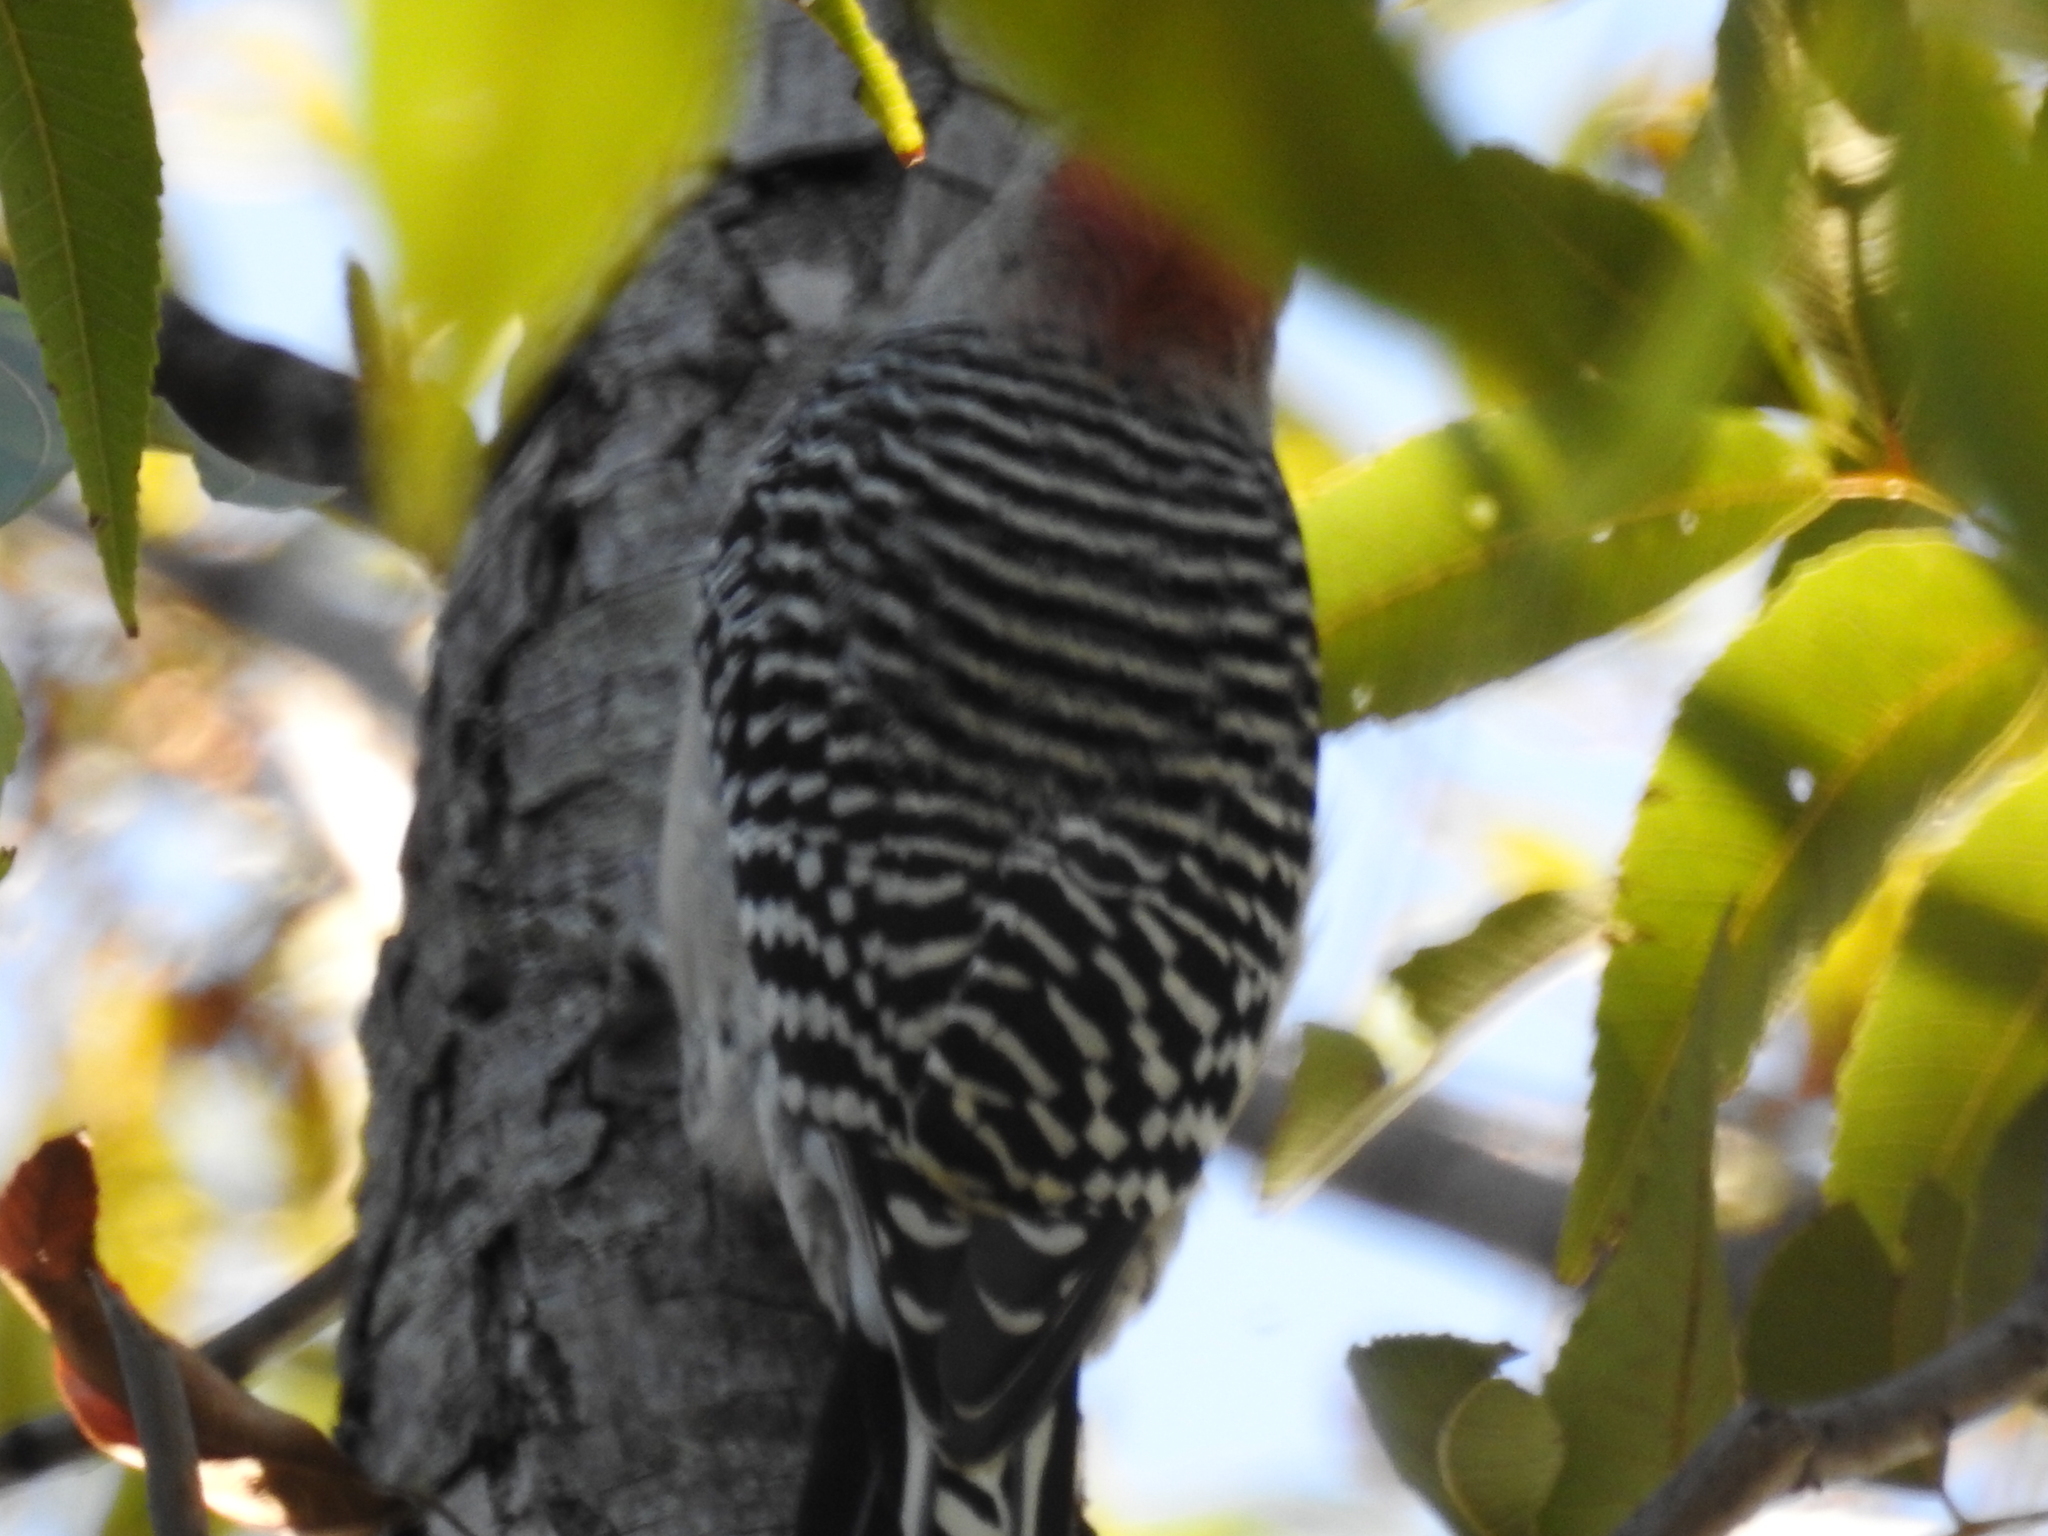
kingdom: Animalia
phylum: Chordata
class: Aves
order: Piciformes
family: Picidae
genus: Melanerpes
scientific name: Melanerpes carolinus
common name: Red-bellied woodpecker
